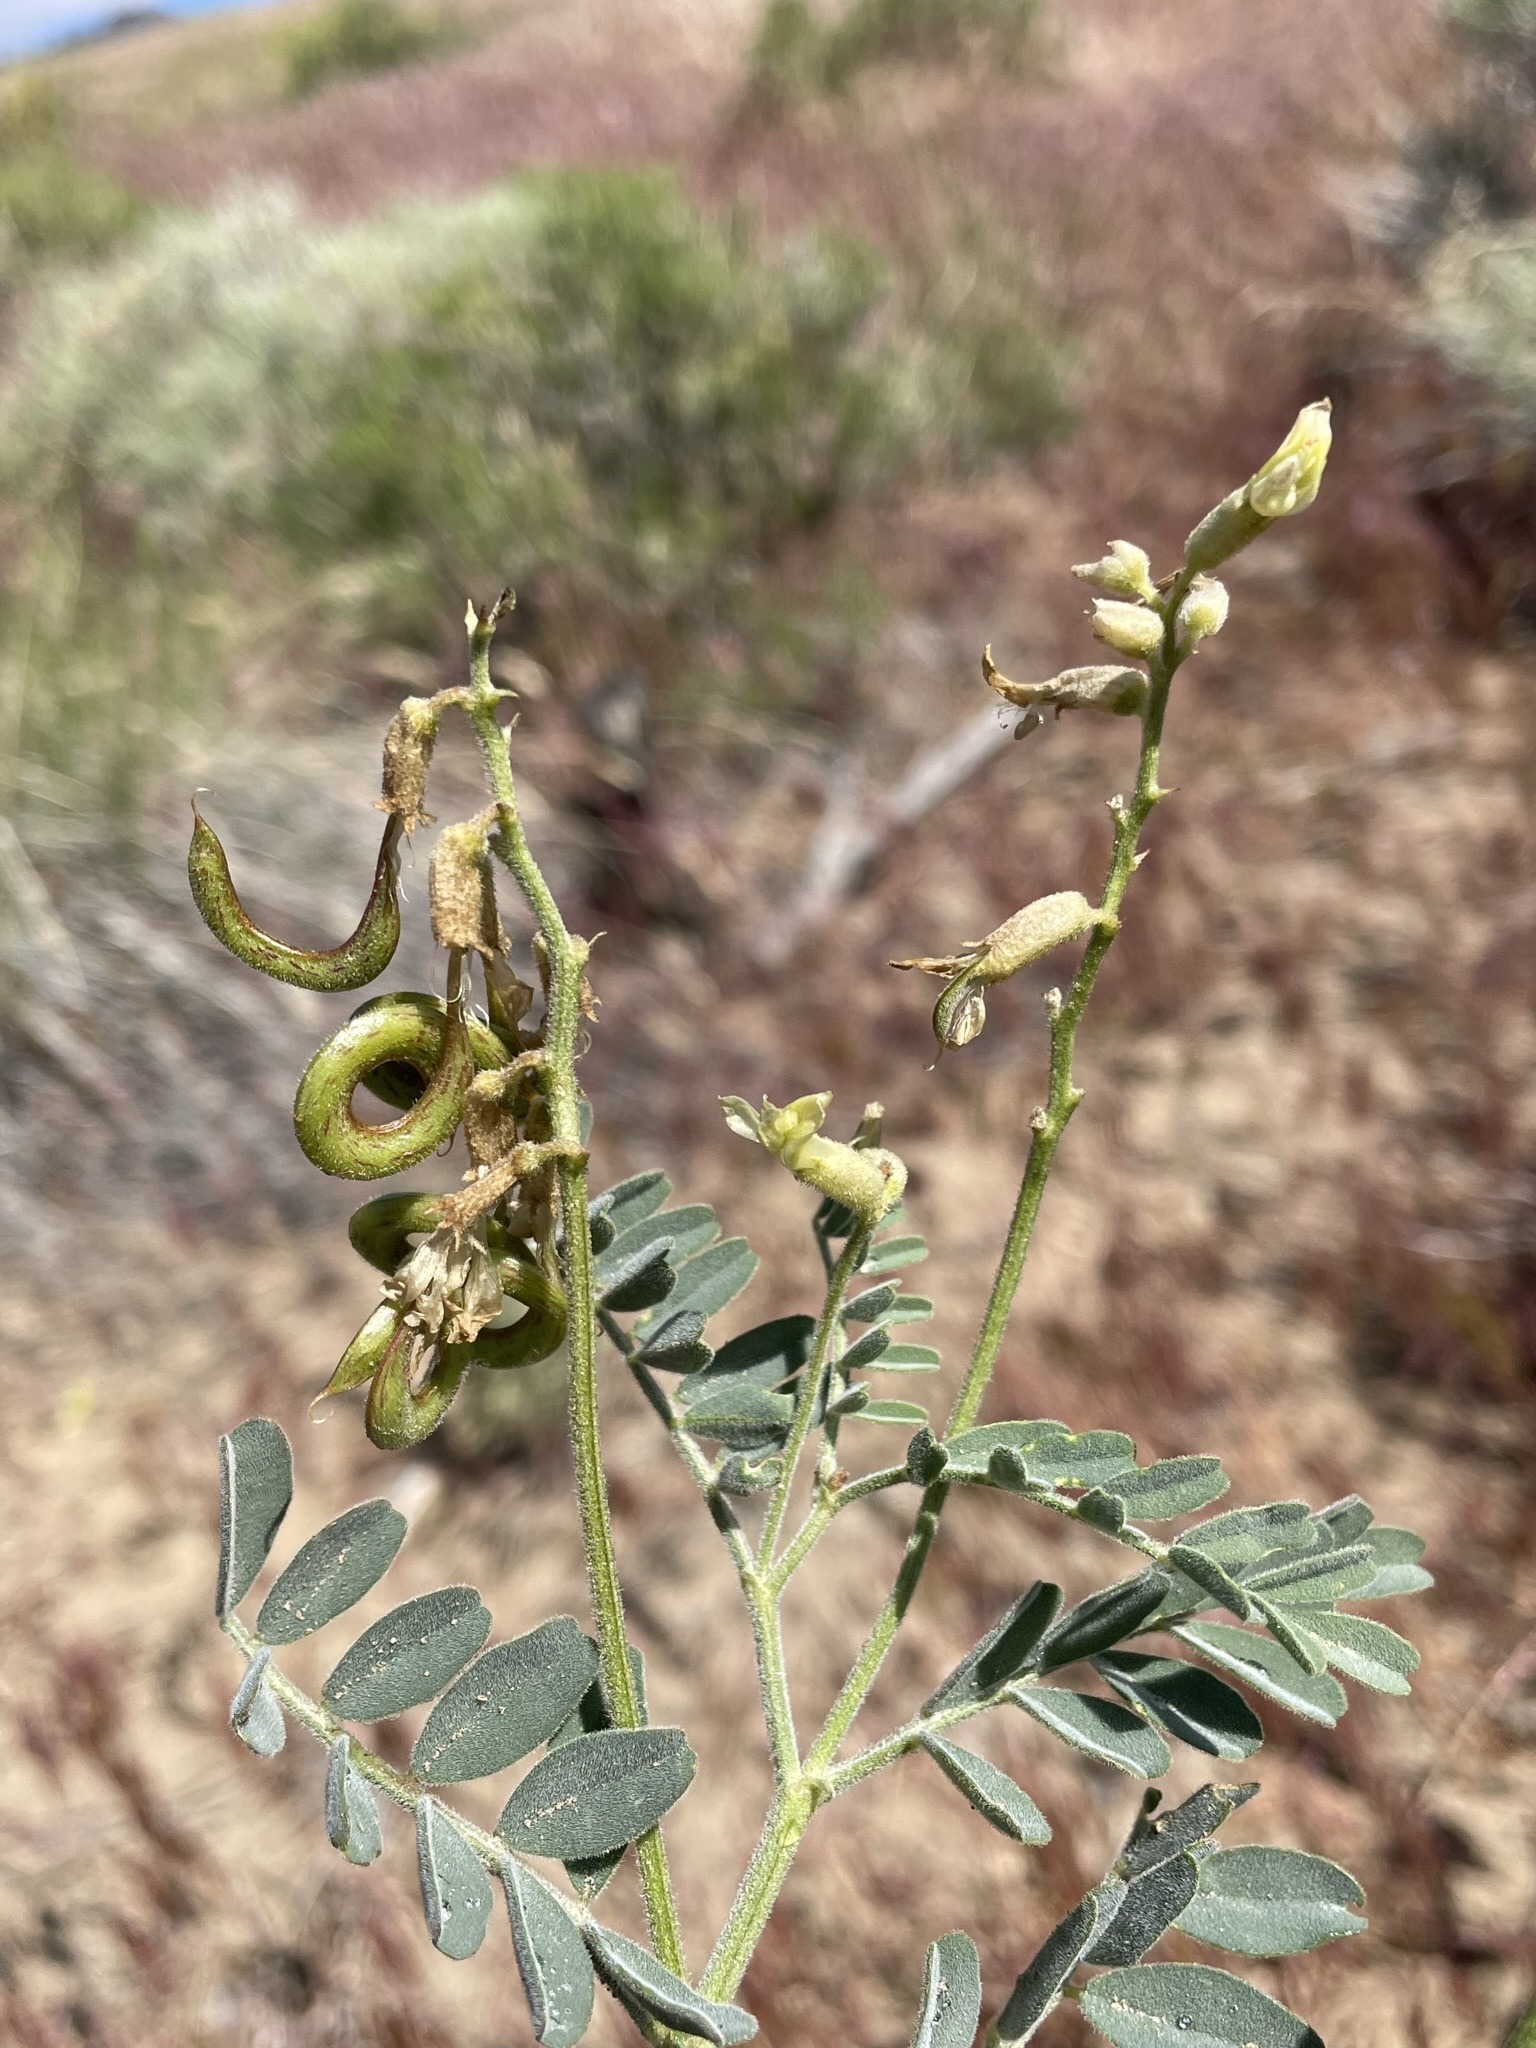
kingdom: Plantae
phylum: Tracheophyta
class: Magnoliopsida
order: Fabales
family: Fabaceae
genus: Astragalus
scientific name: Astragalus curvicarpus
